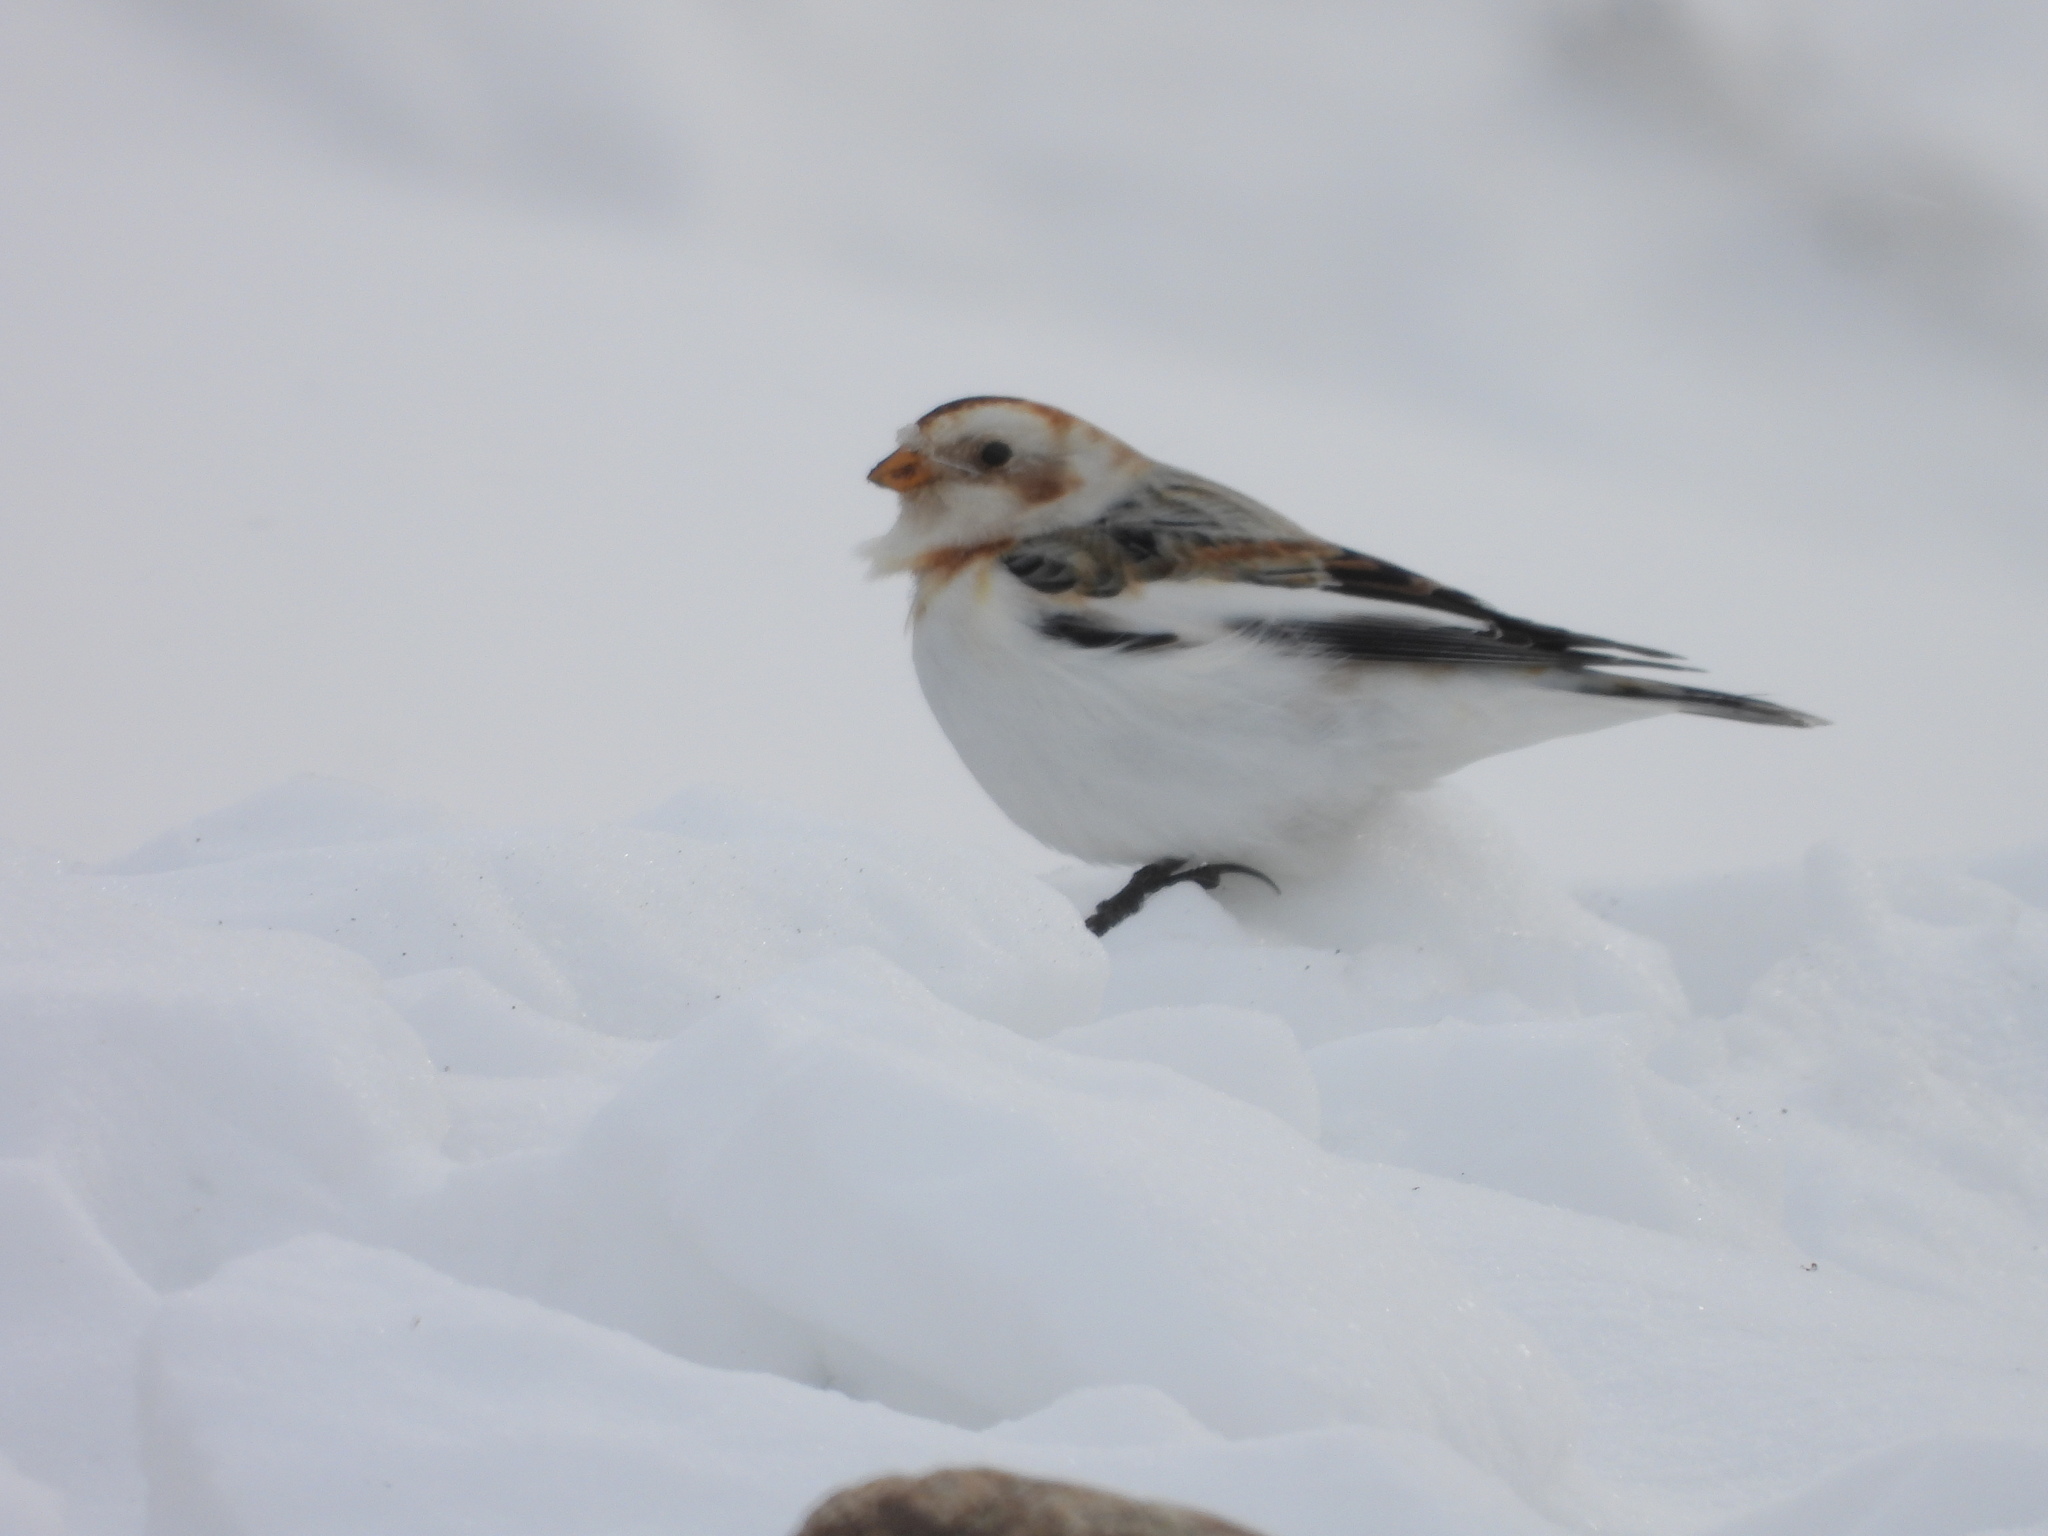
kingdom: Animalia
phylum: Chordata
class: Aves
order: Passeriformes
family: Calcariidae
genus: Plectrophenax
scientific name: Plectrophenax nivalis
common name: Snow bunting
